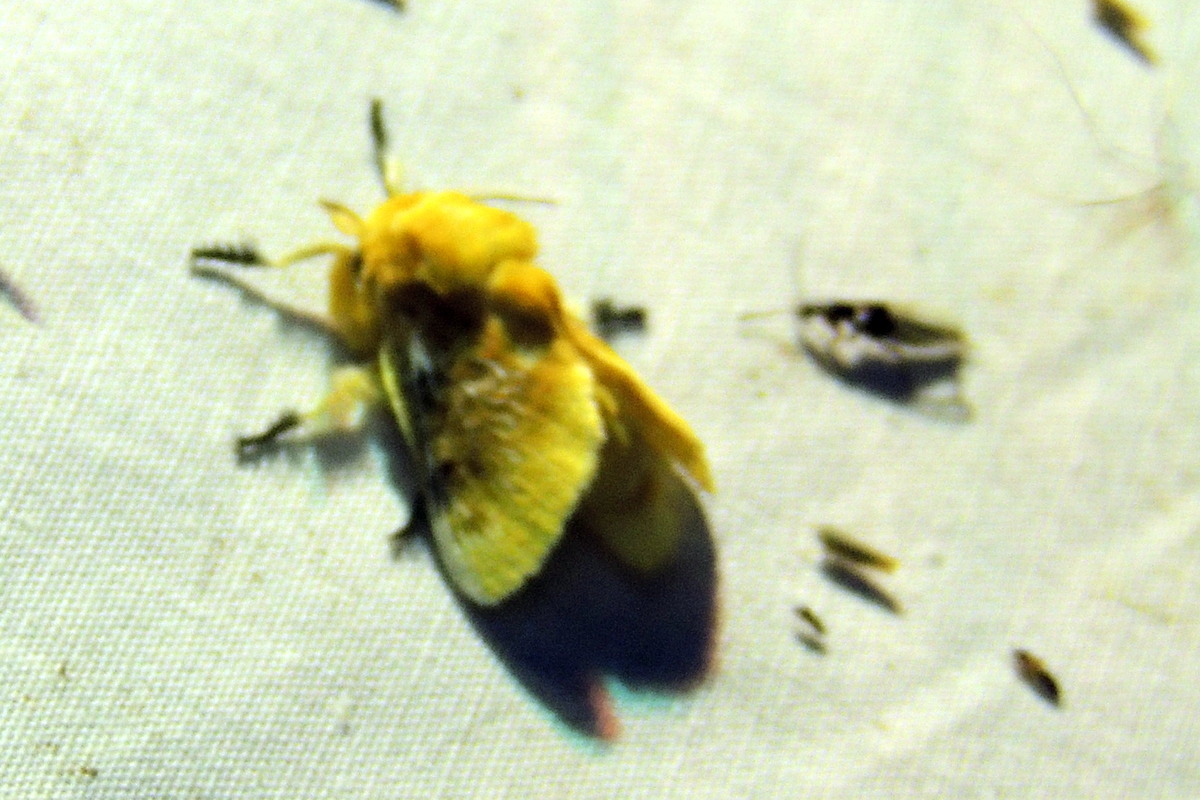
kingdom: Animalia
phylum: Arthropoda
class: Insecta
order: Lepidoptera
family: Megalopygidae
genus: Megalopyge
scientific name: Megalopyge opercularis
